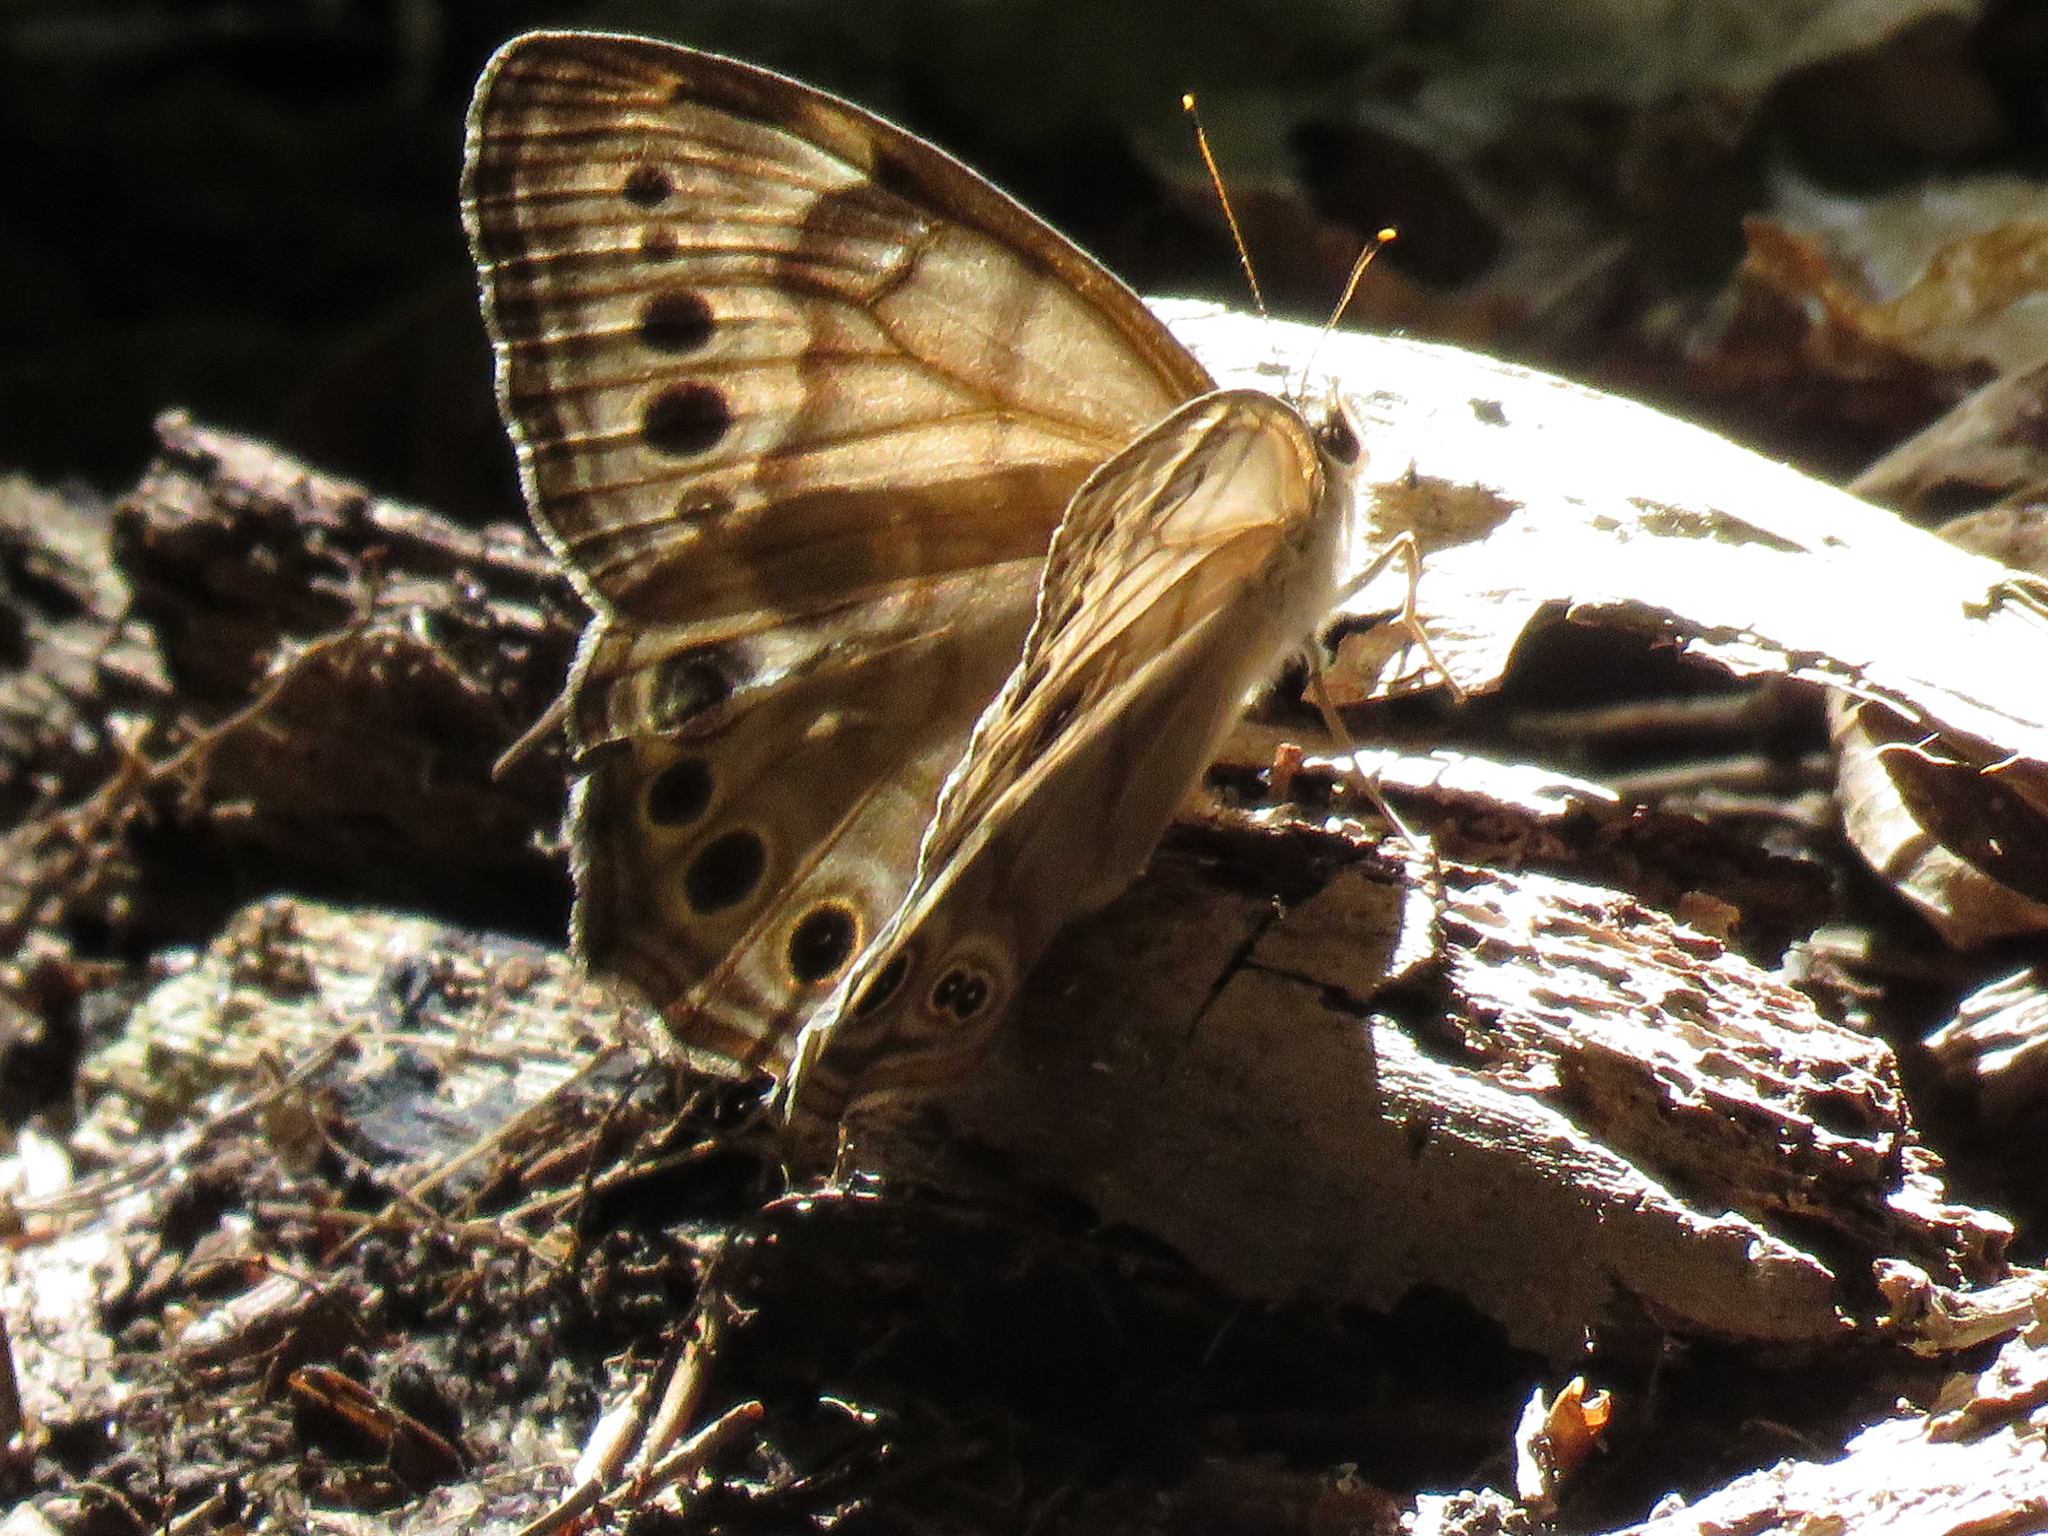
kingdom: Animalia
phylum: Arthropoda
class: Insecta
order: Lepidoptera
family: Nymphalidae
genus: Lethe
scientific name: Lethe anthedon
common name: Northern pearly-eye
